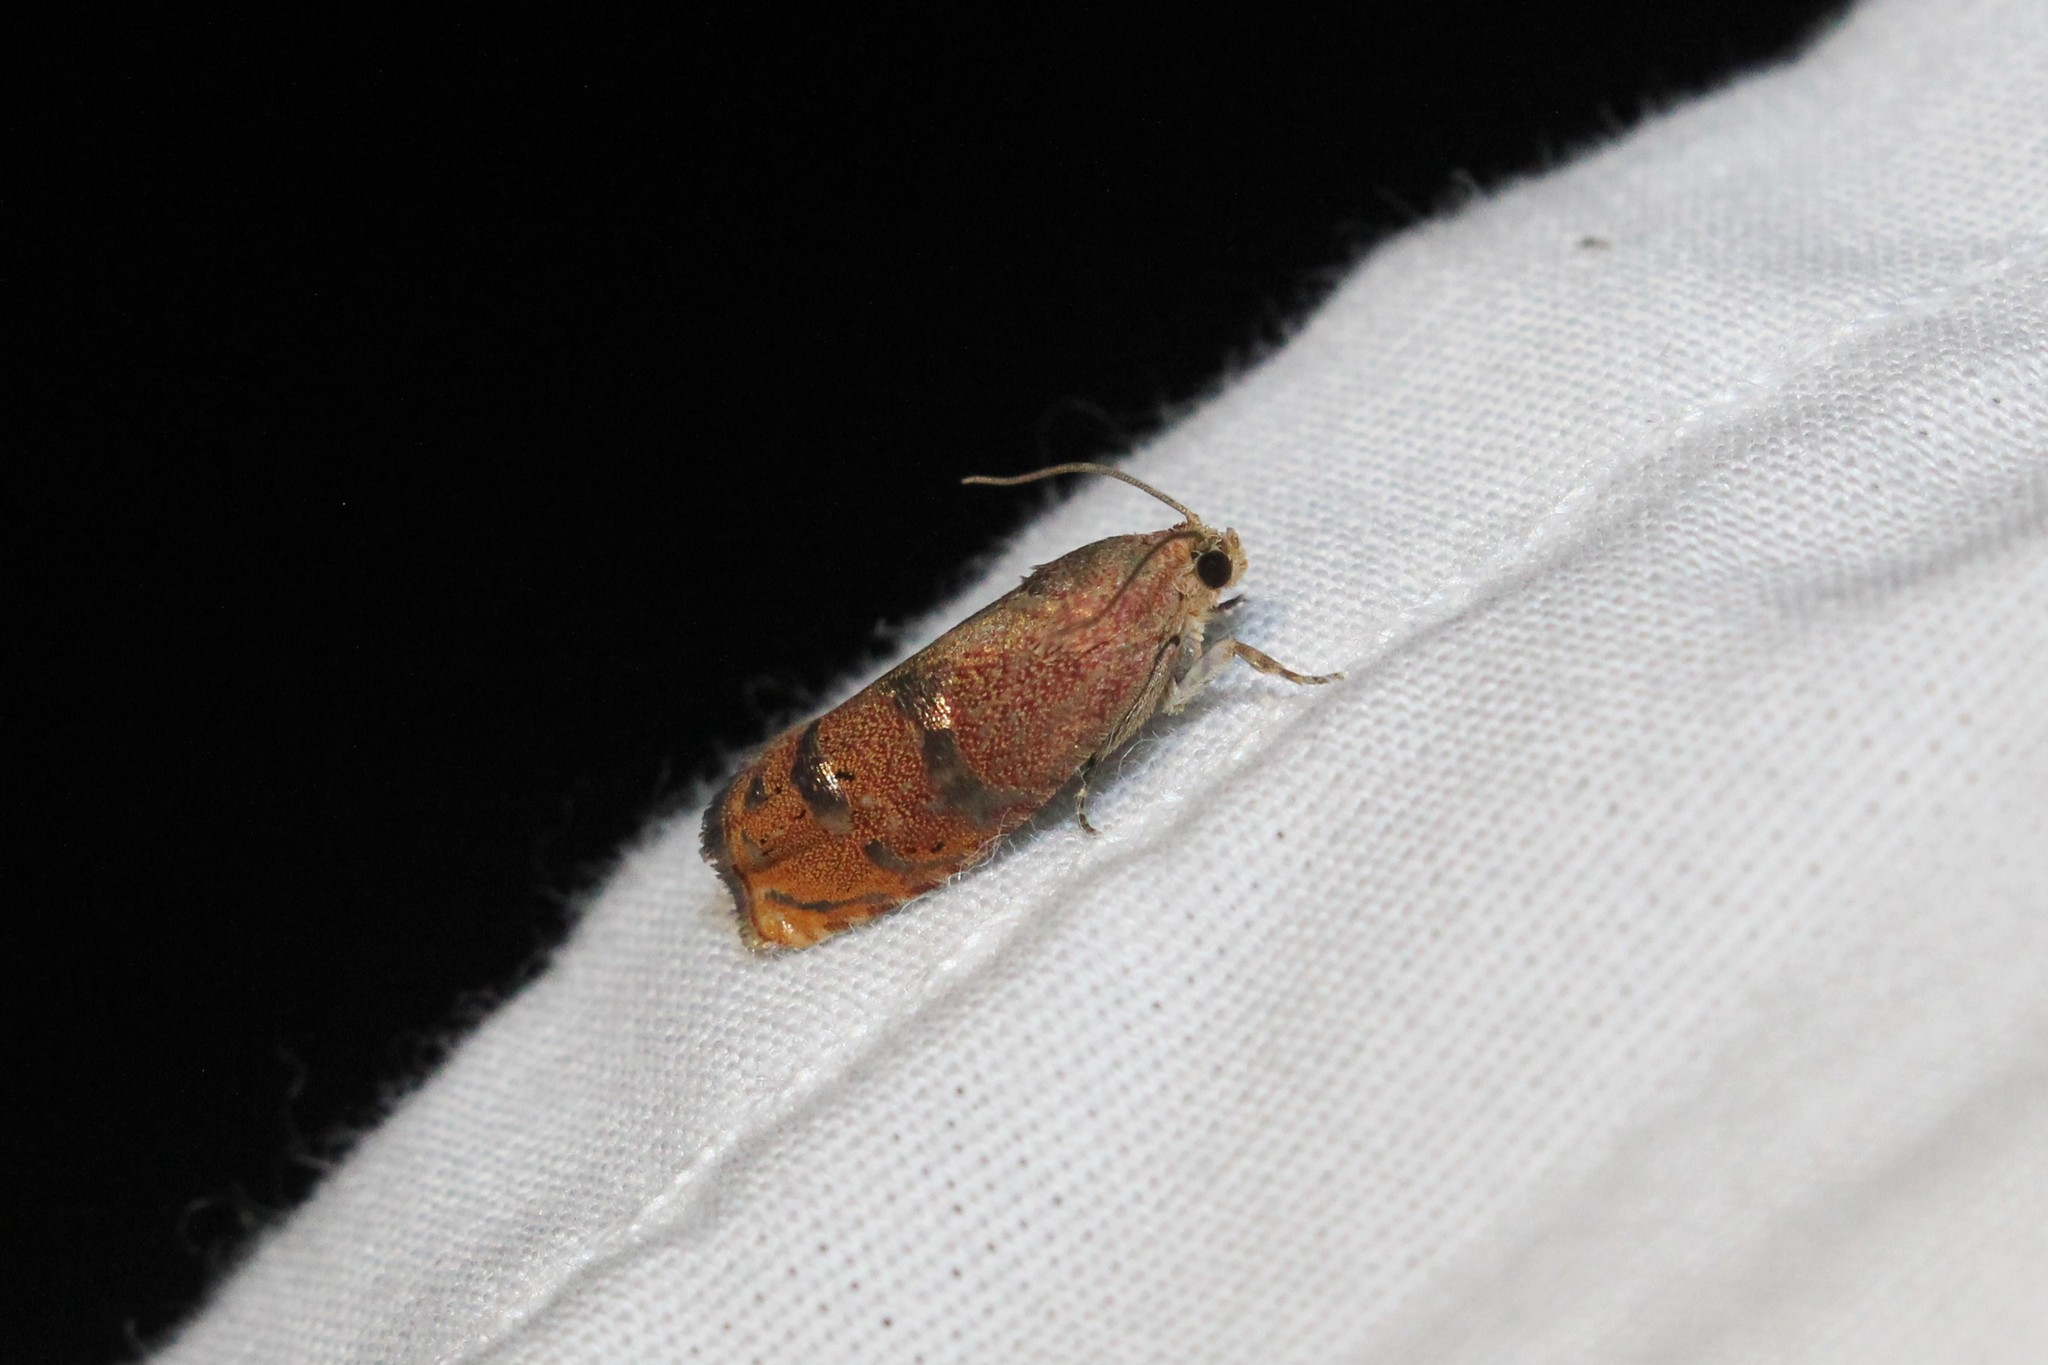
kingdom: Animalia
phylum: Arthropoda
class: Insecta
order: Lepidoptera
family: Tortricidae
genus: Cydia
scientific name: Cydia latiferreana
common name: Filbertworm moth
